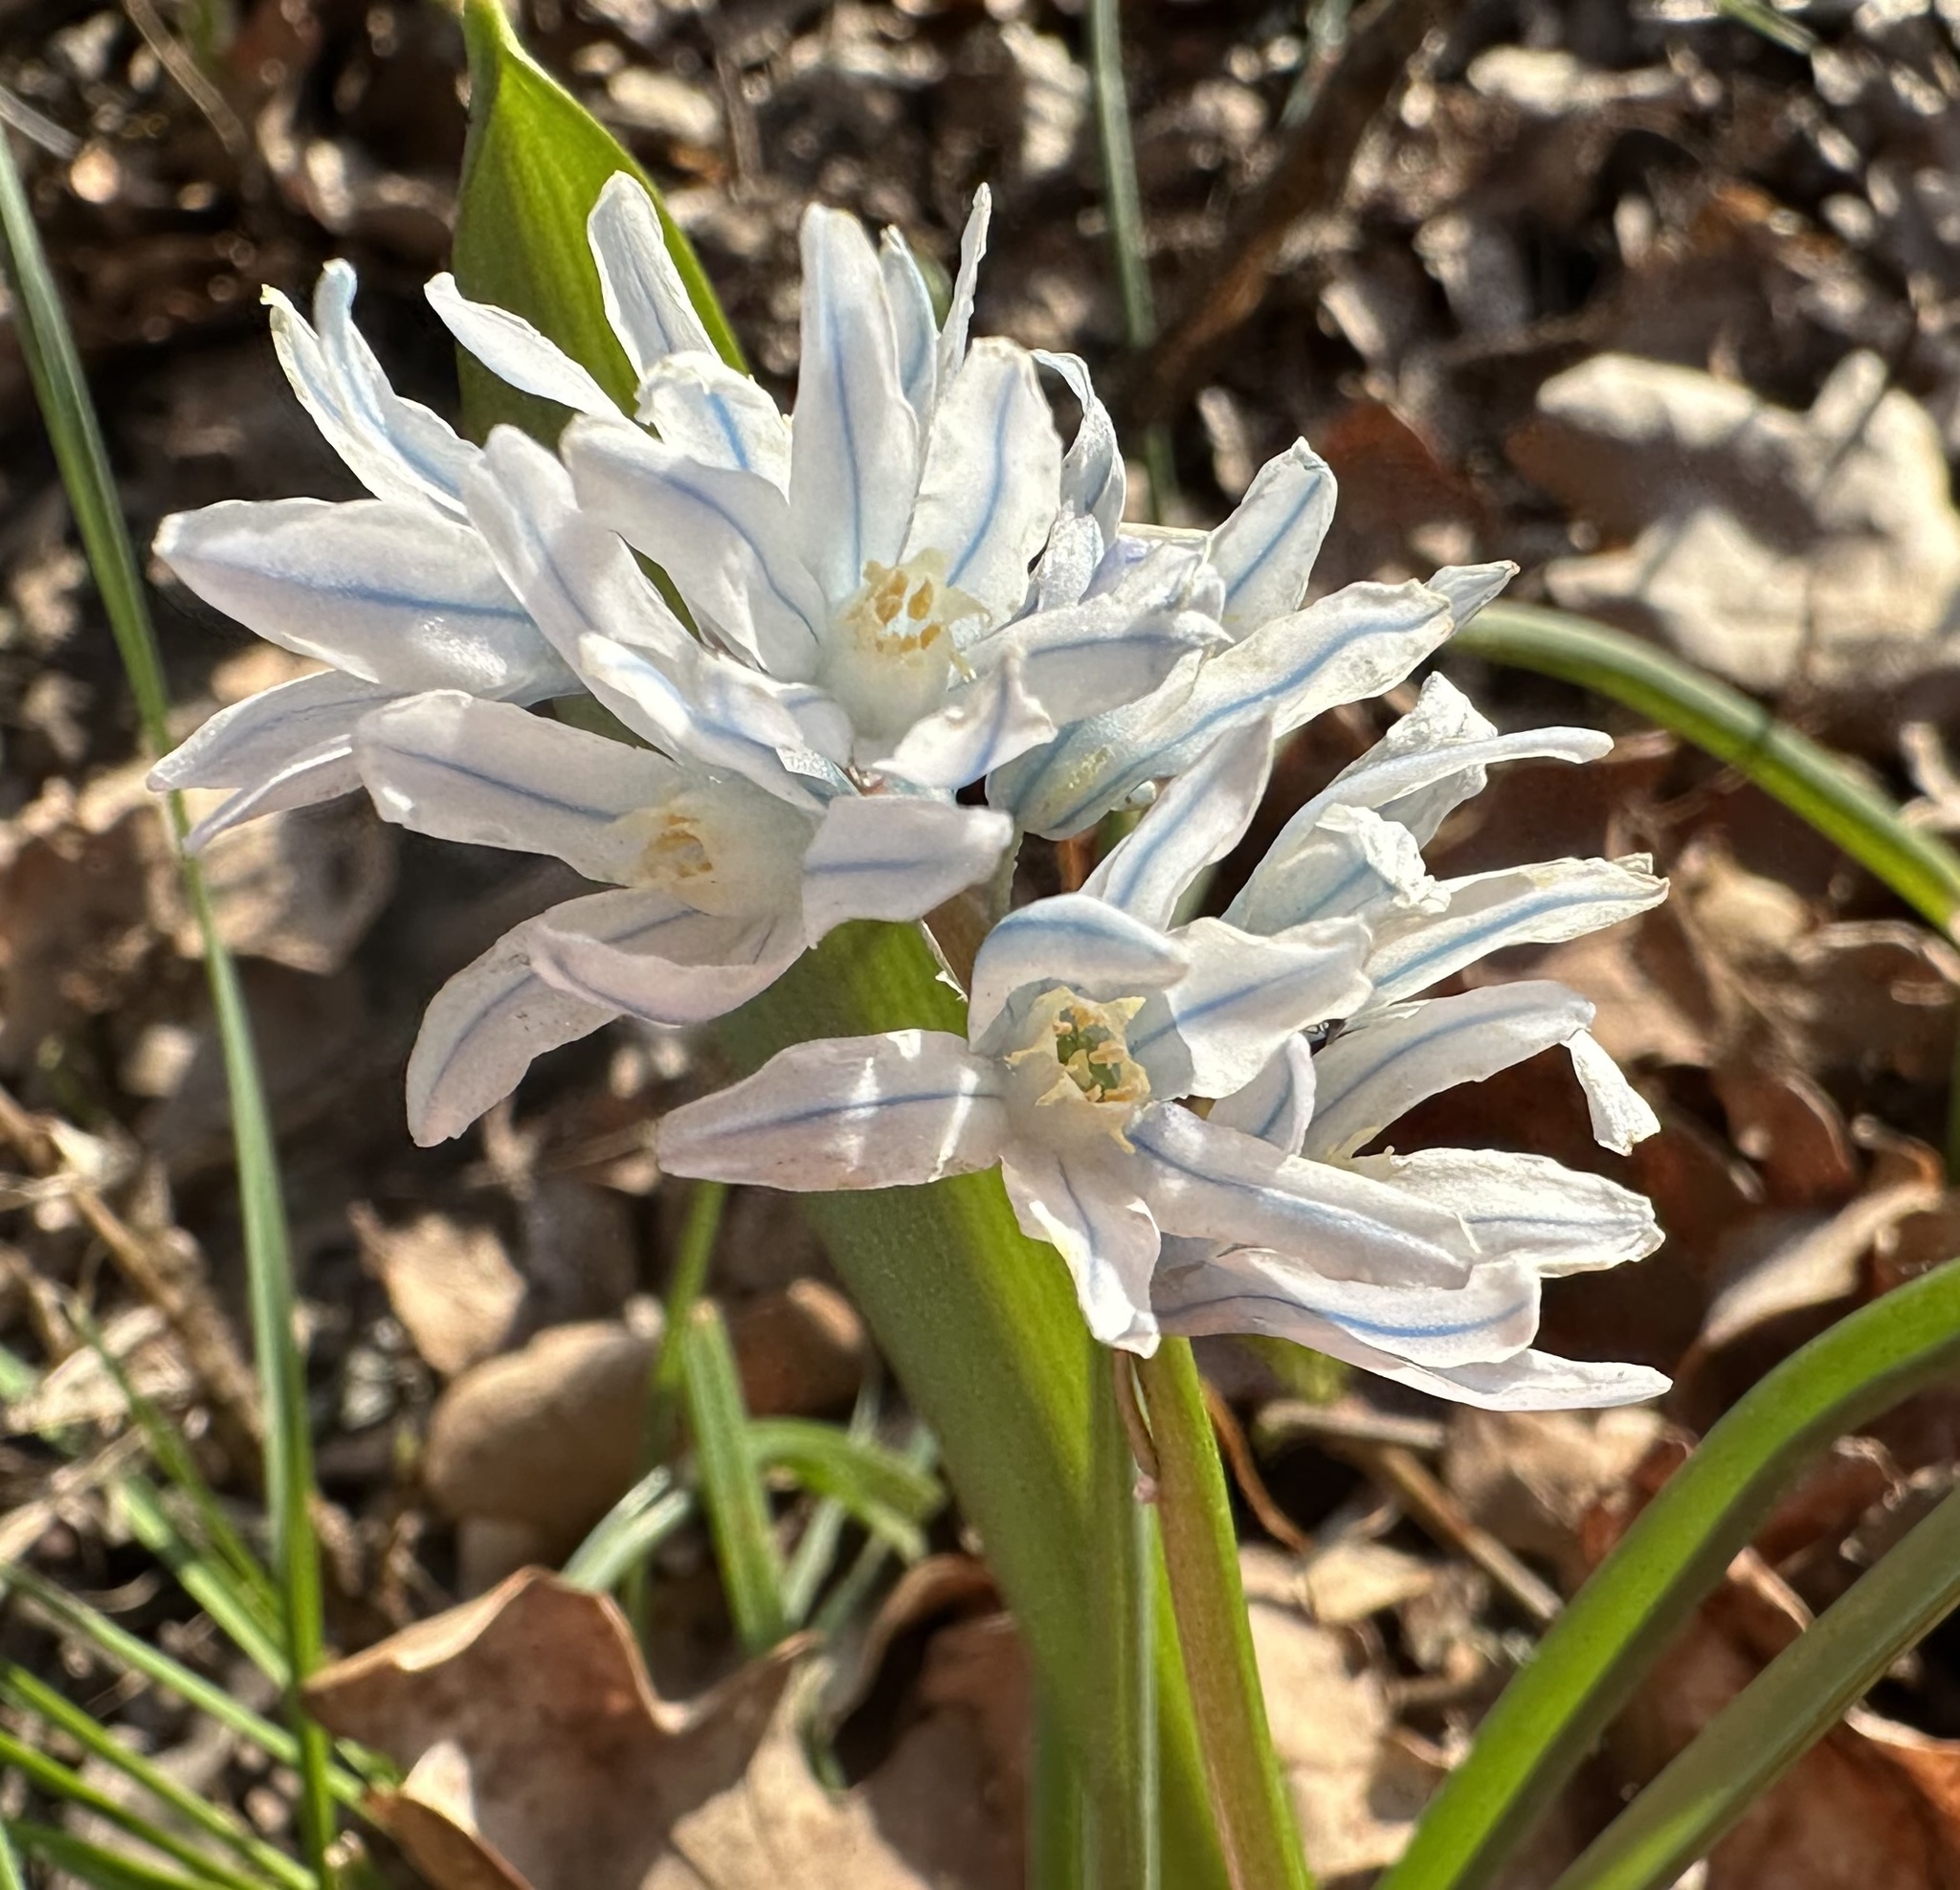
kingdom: Plantae
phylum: Tracheophyta
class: Liliopsida
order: Asparagales
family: Asparagaceae
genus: Puschkinia
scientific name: Puschkinia scilloides
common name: Striped squill
